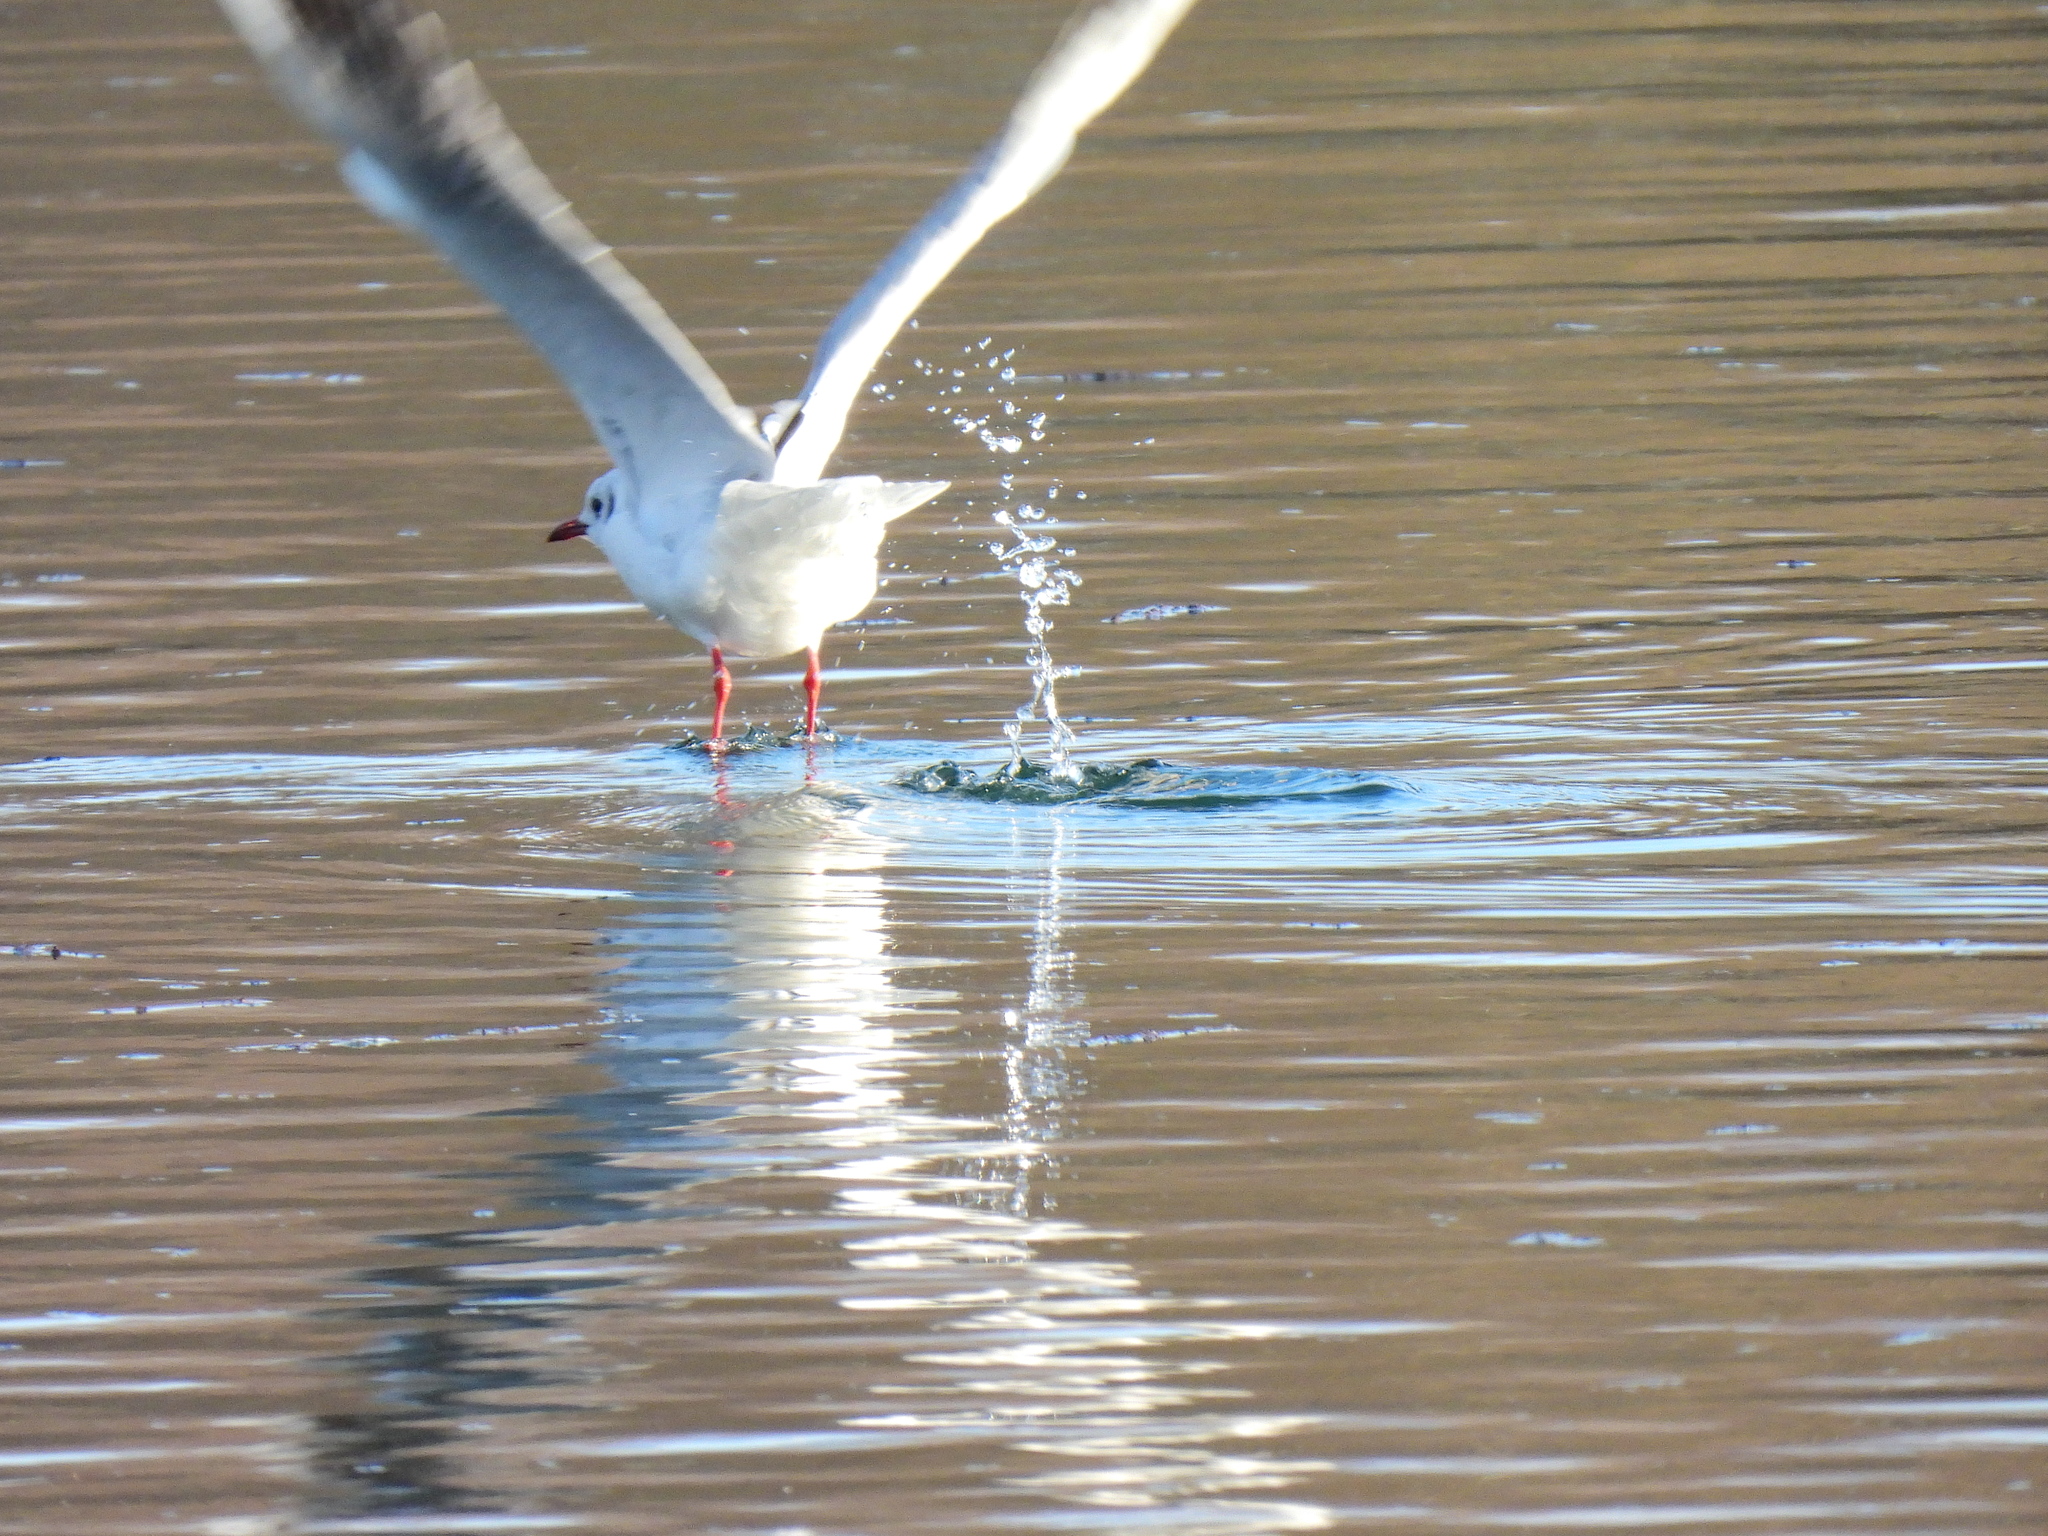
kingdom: Animalia
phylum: Chordata
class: Aves
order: Charadriiformes
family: Laridae
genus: Chroicocephalus
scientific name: Chroicocephalus ridibundus
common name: Black-headed gull
